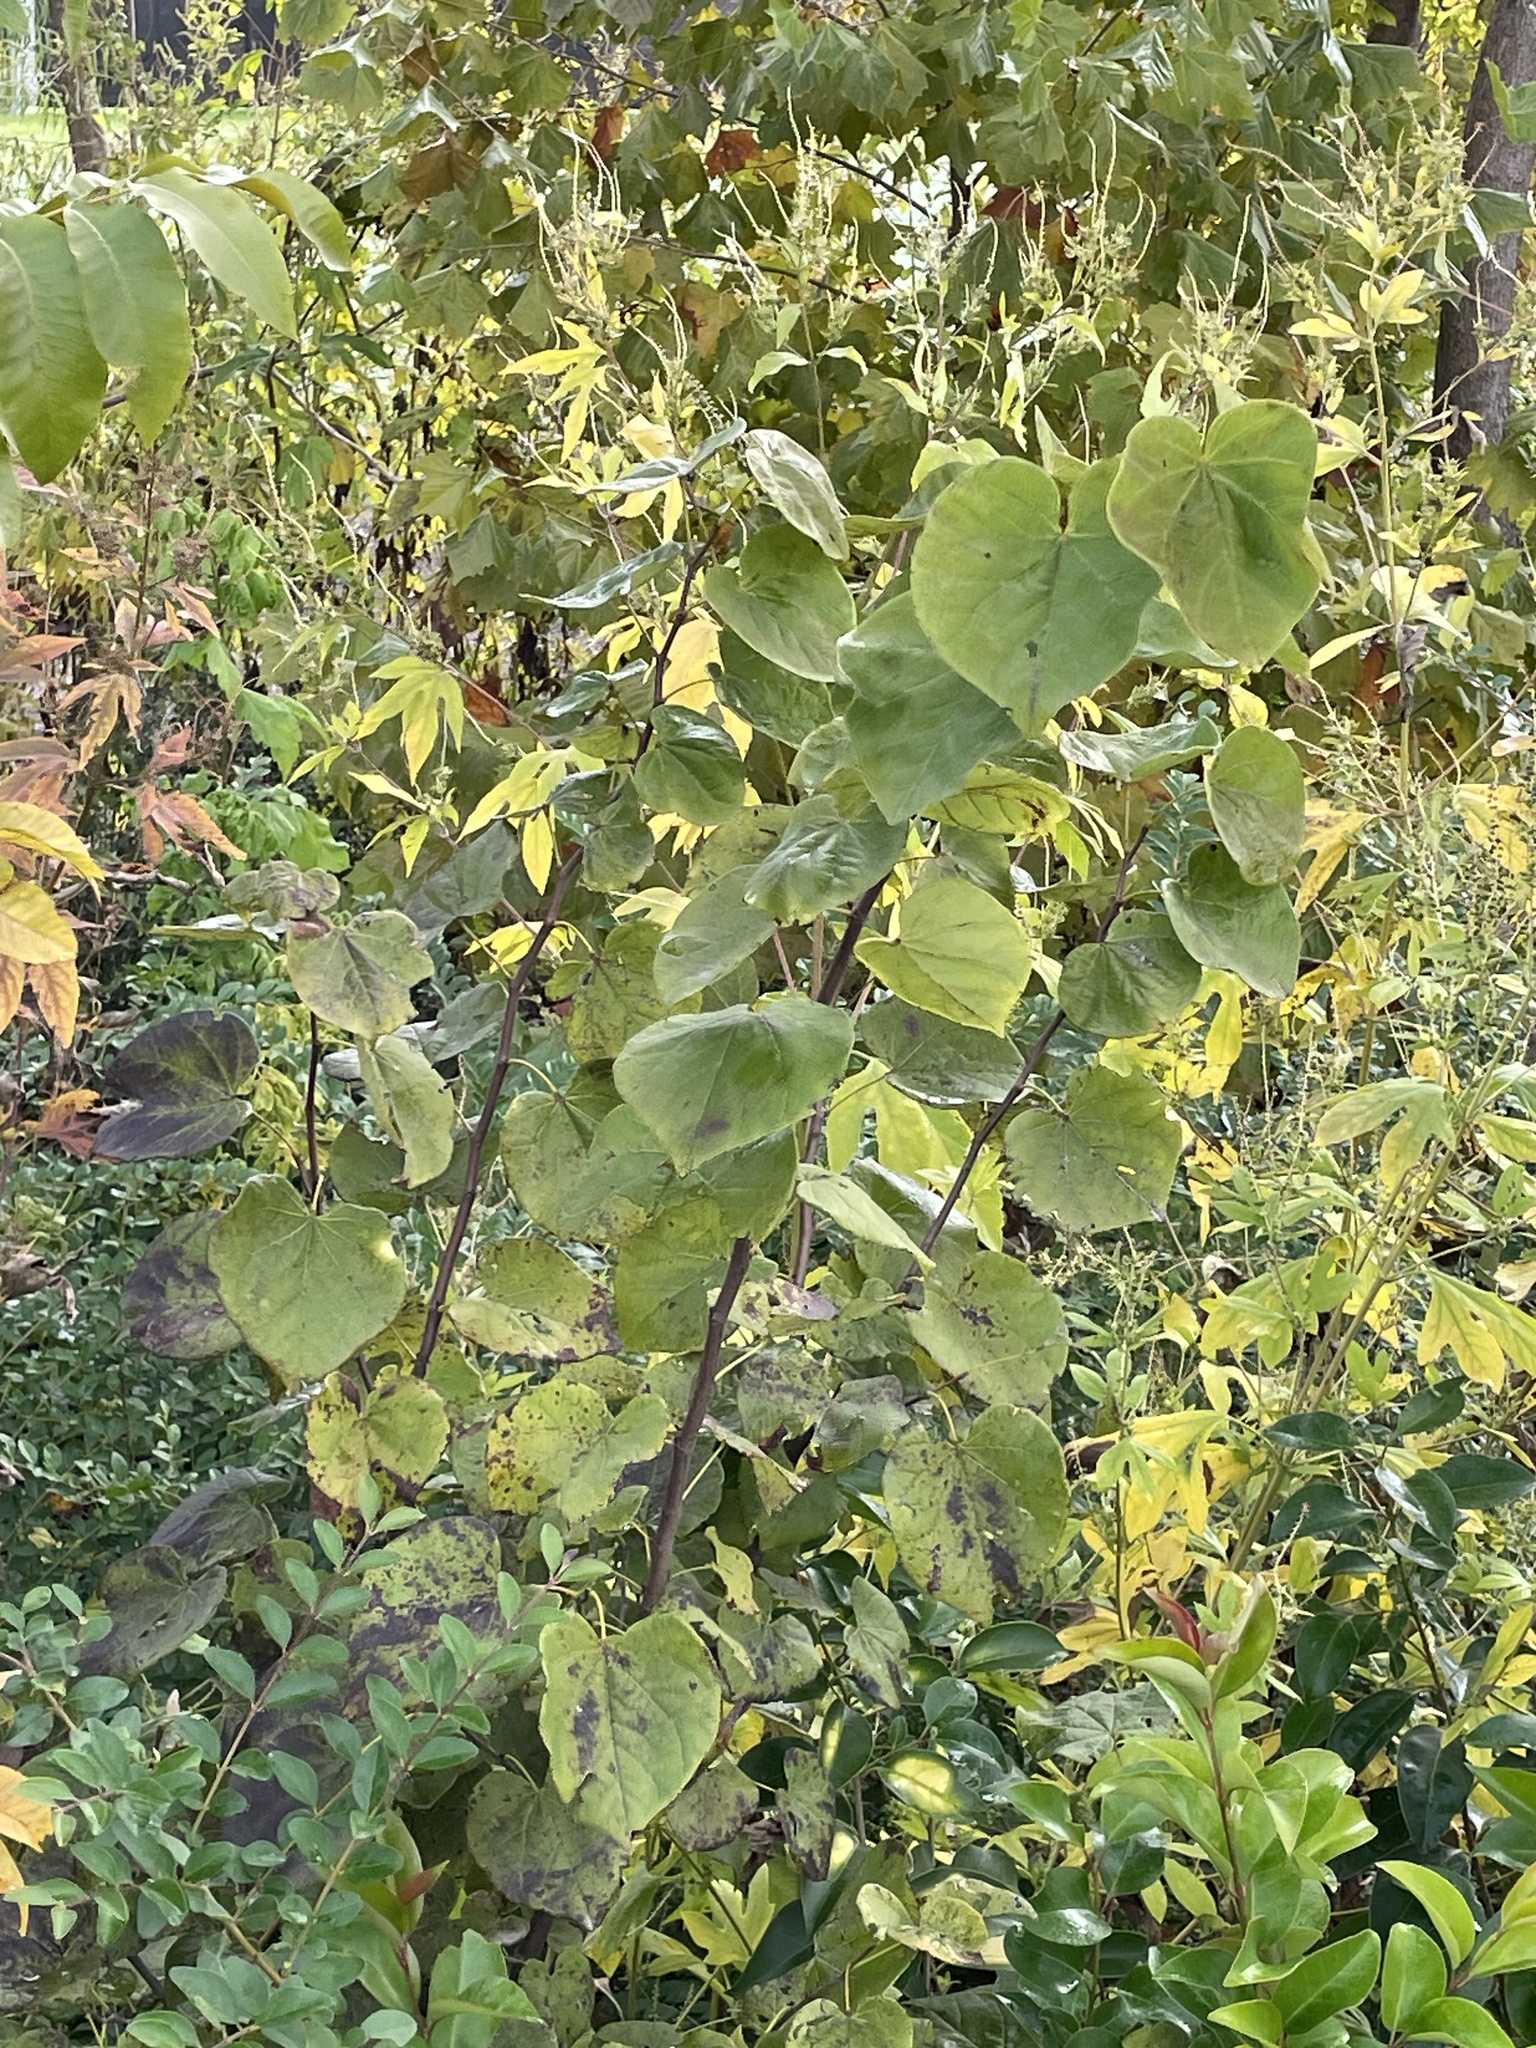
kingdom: Plantae
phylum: Tracheophyta
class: Magnoliopsida
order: Fabales
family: Fabaceae
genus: Cercis
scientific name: Cercis canadensis
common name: Eastern redbud
